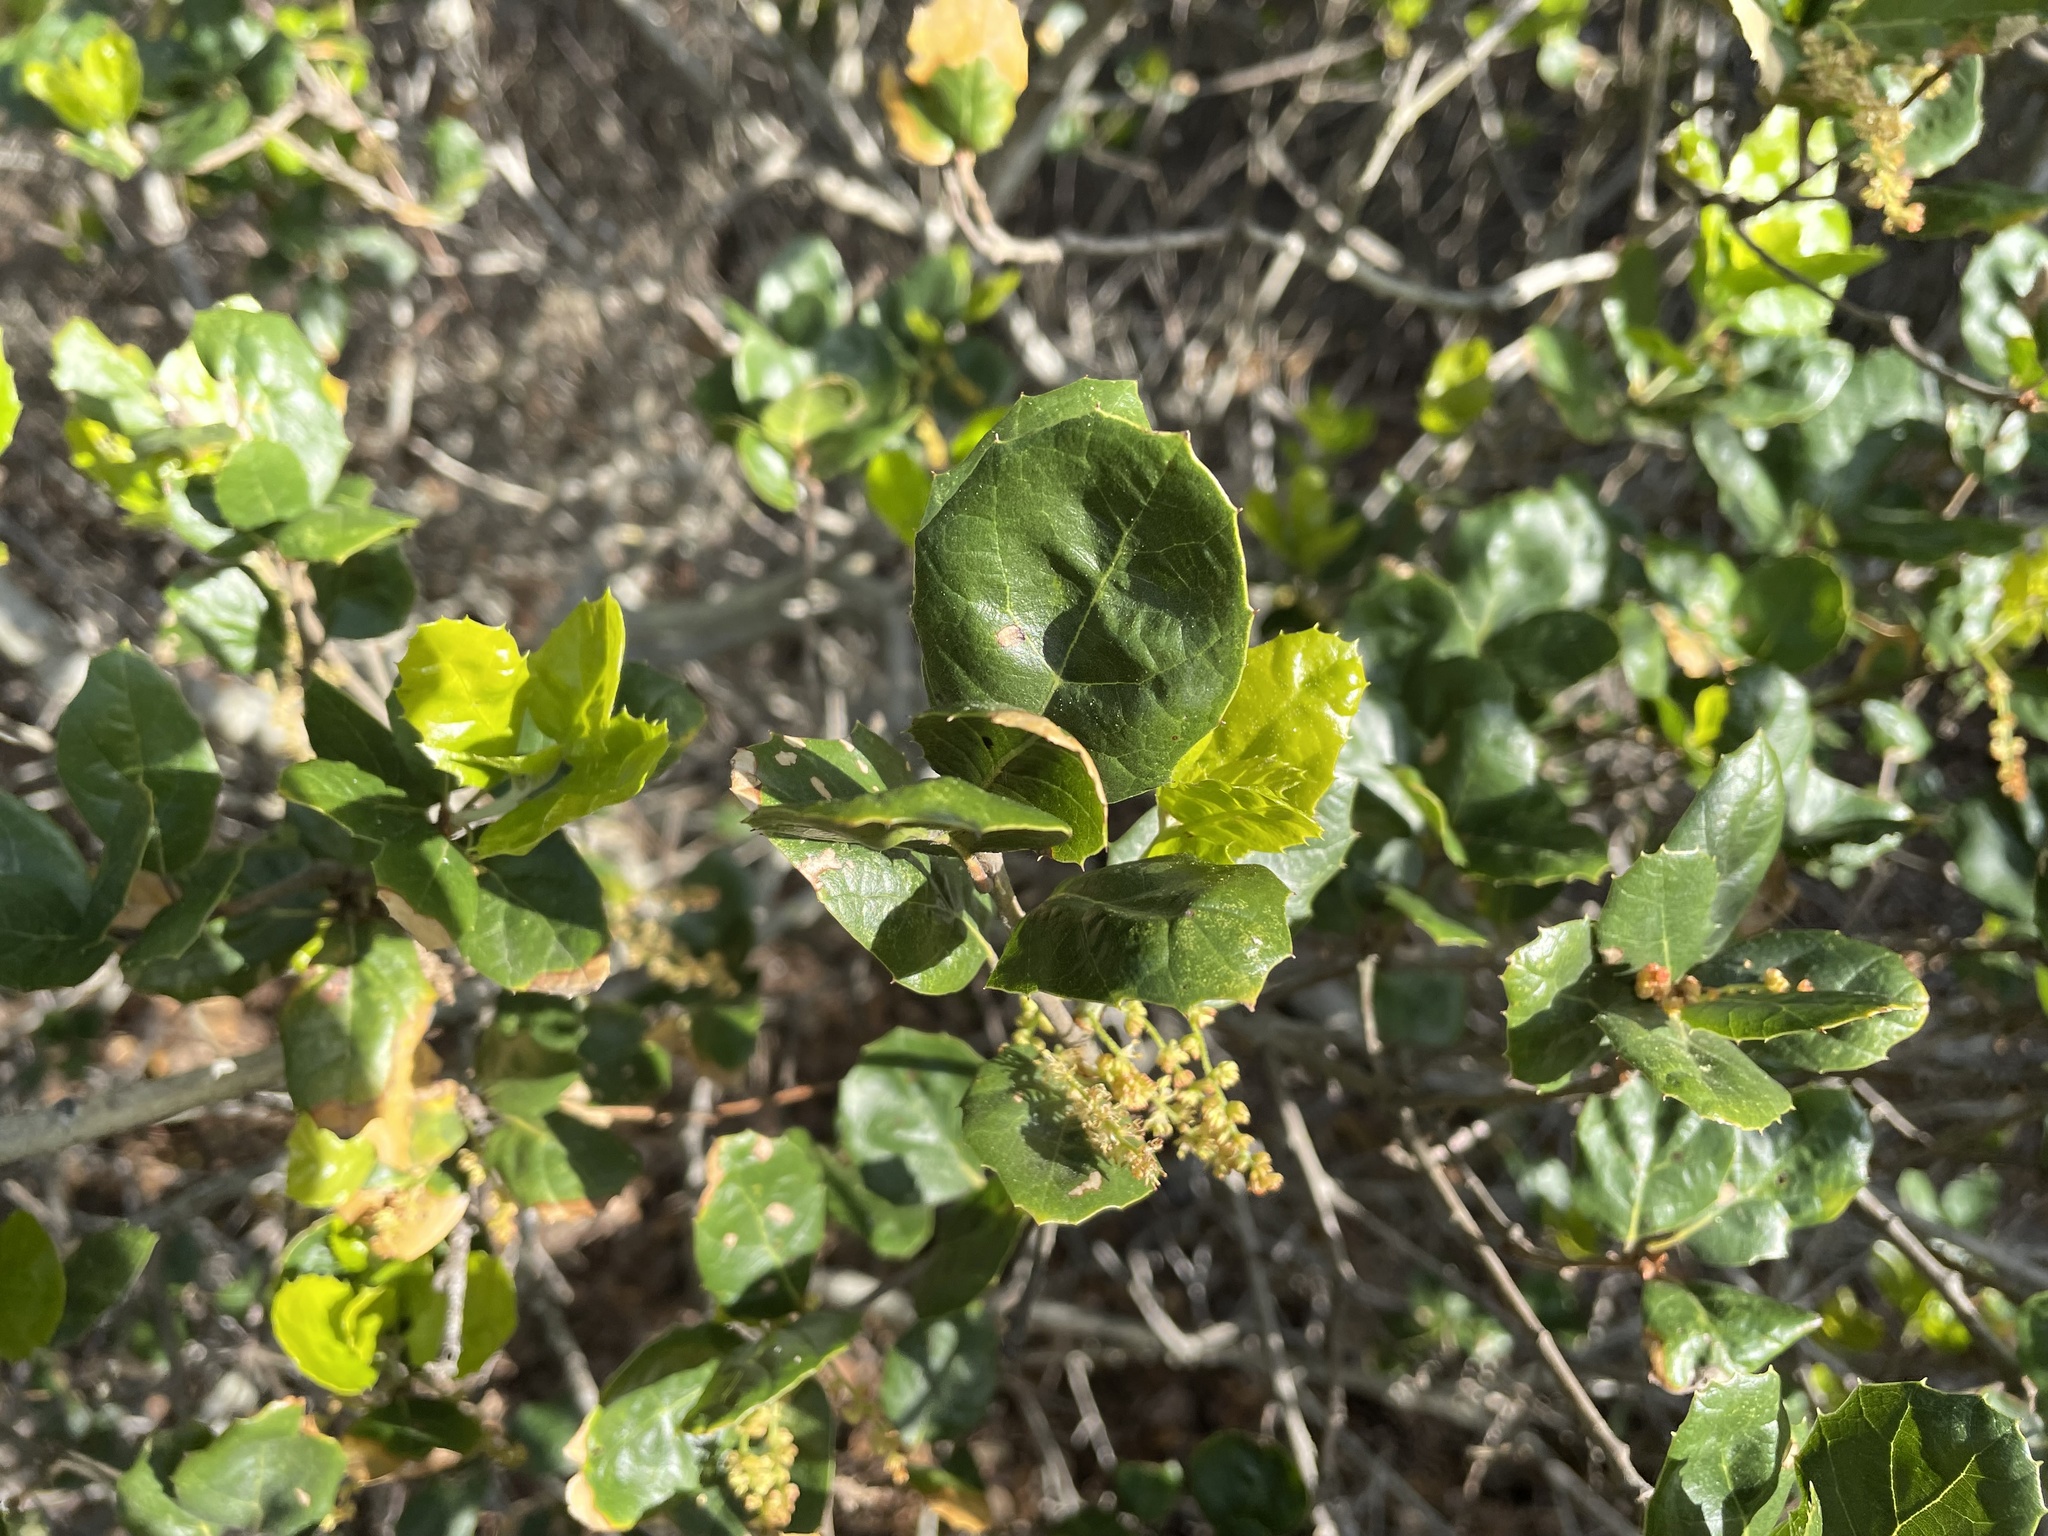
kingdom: Plantae
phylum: Tracheophyta
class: Magnoliopsida
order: Fagales
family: Fagaceae
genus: Quercus
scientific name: Quercus agrifolia
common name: California live oak
